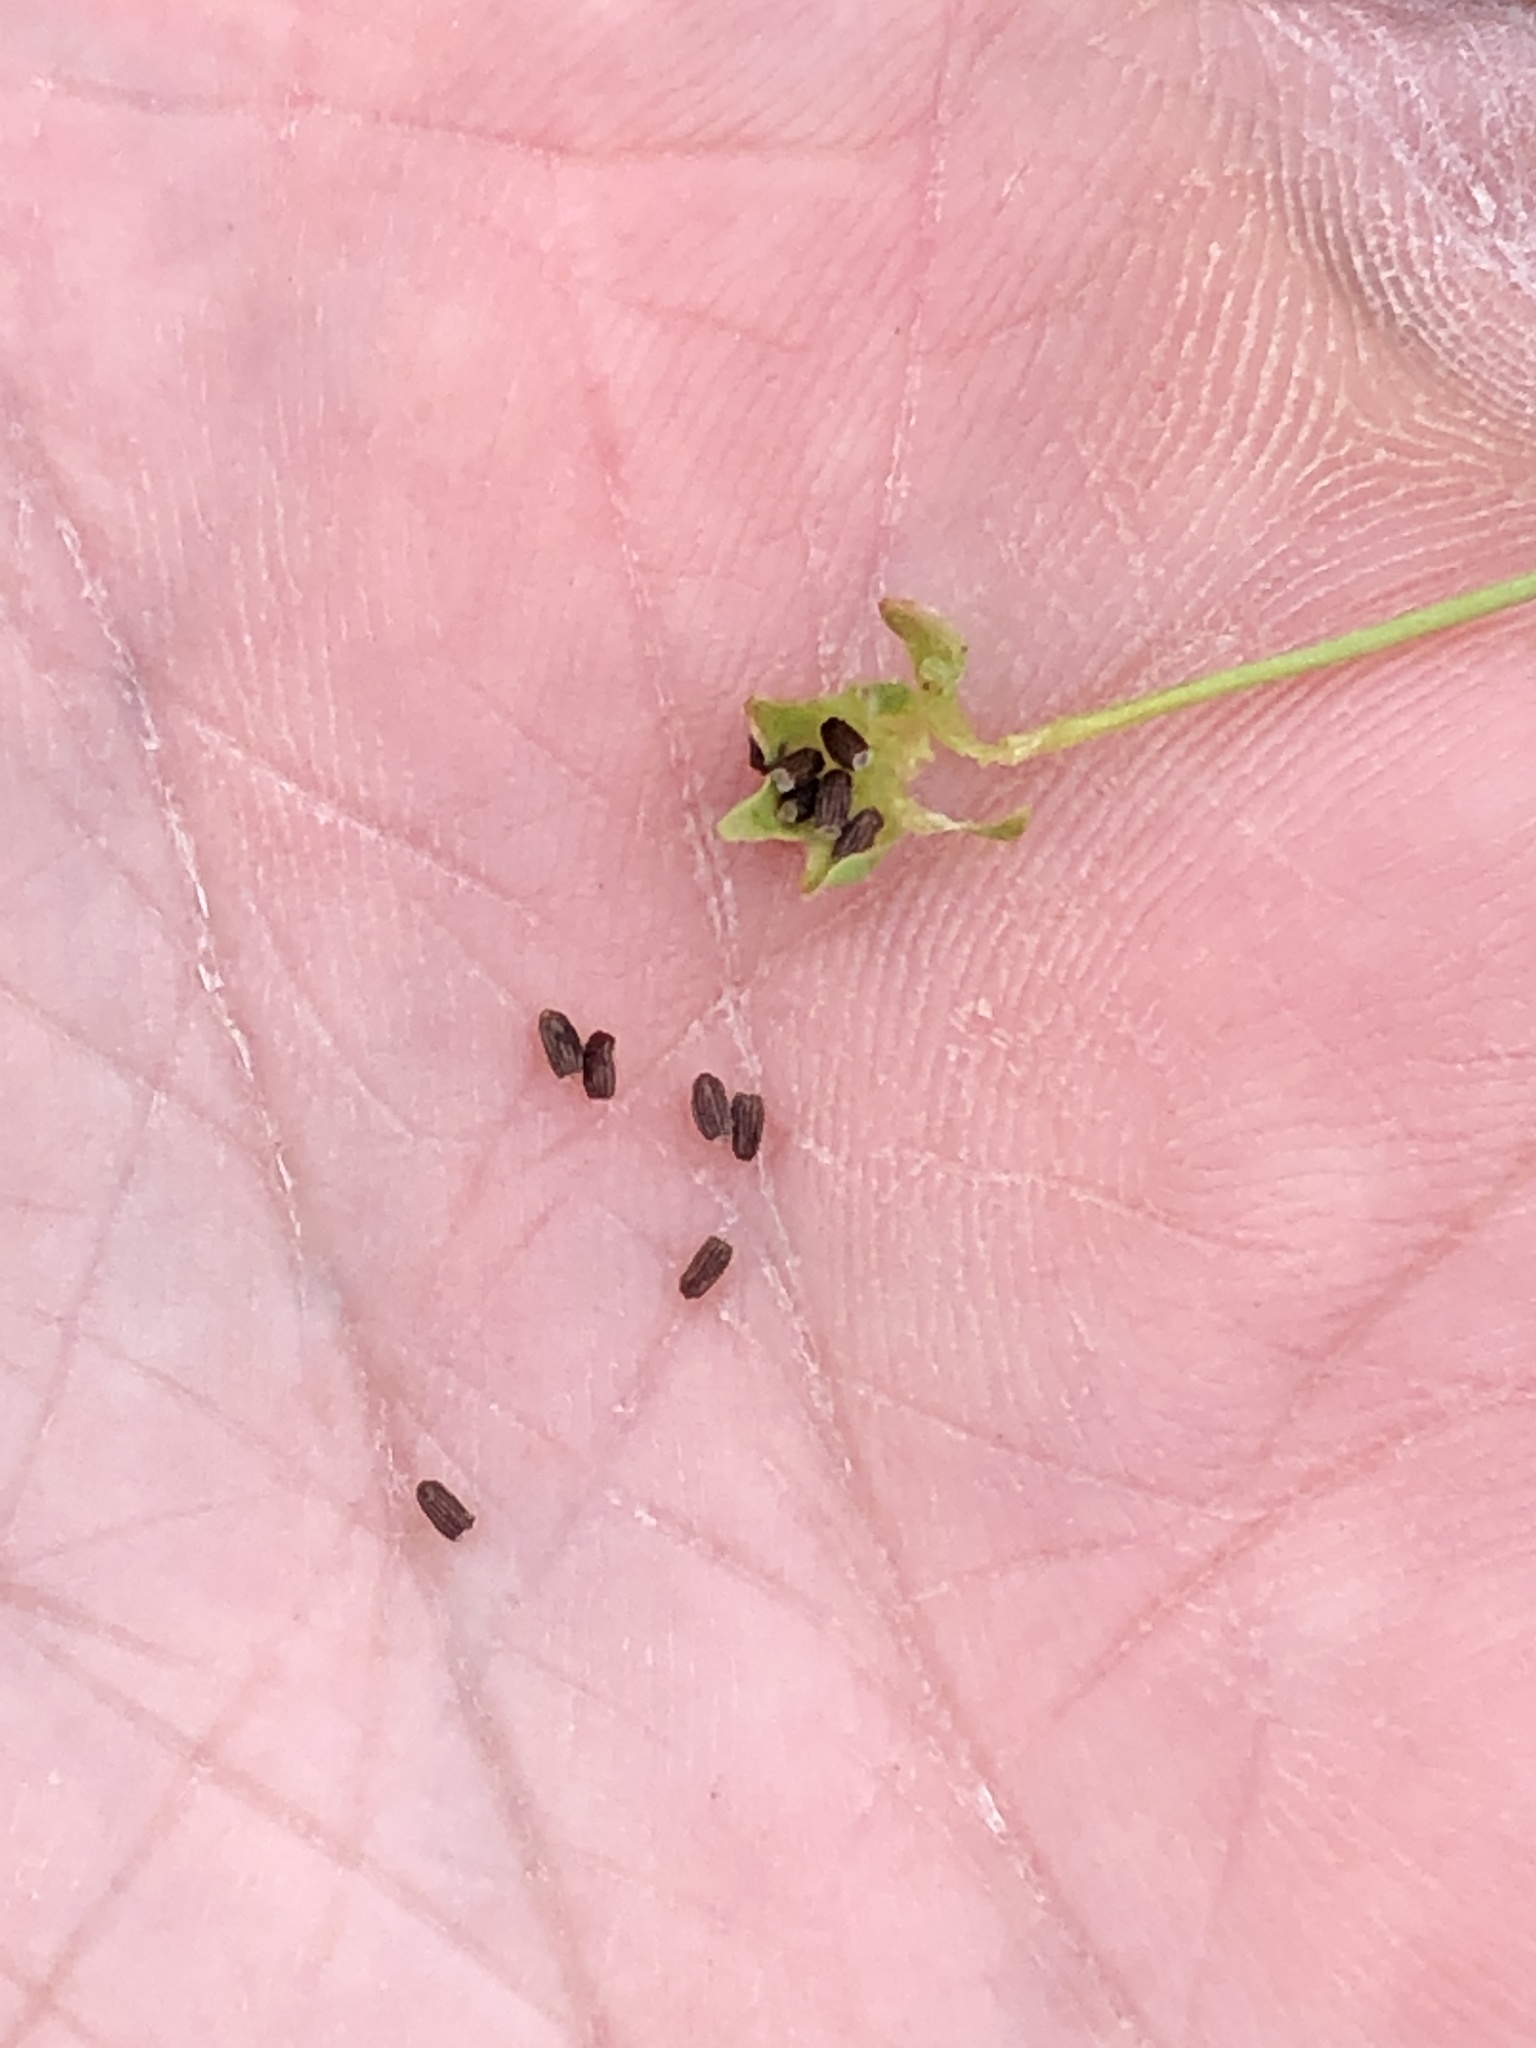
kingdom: Plantae
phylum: Tracheophyta
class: Magnoliopsida
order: Asterales
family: Asteraceae
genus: Krigia
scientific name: Krigia cespitosa
